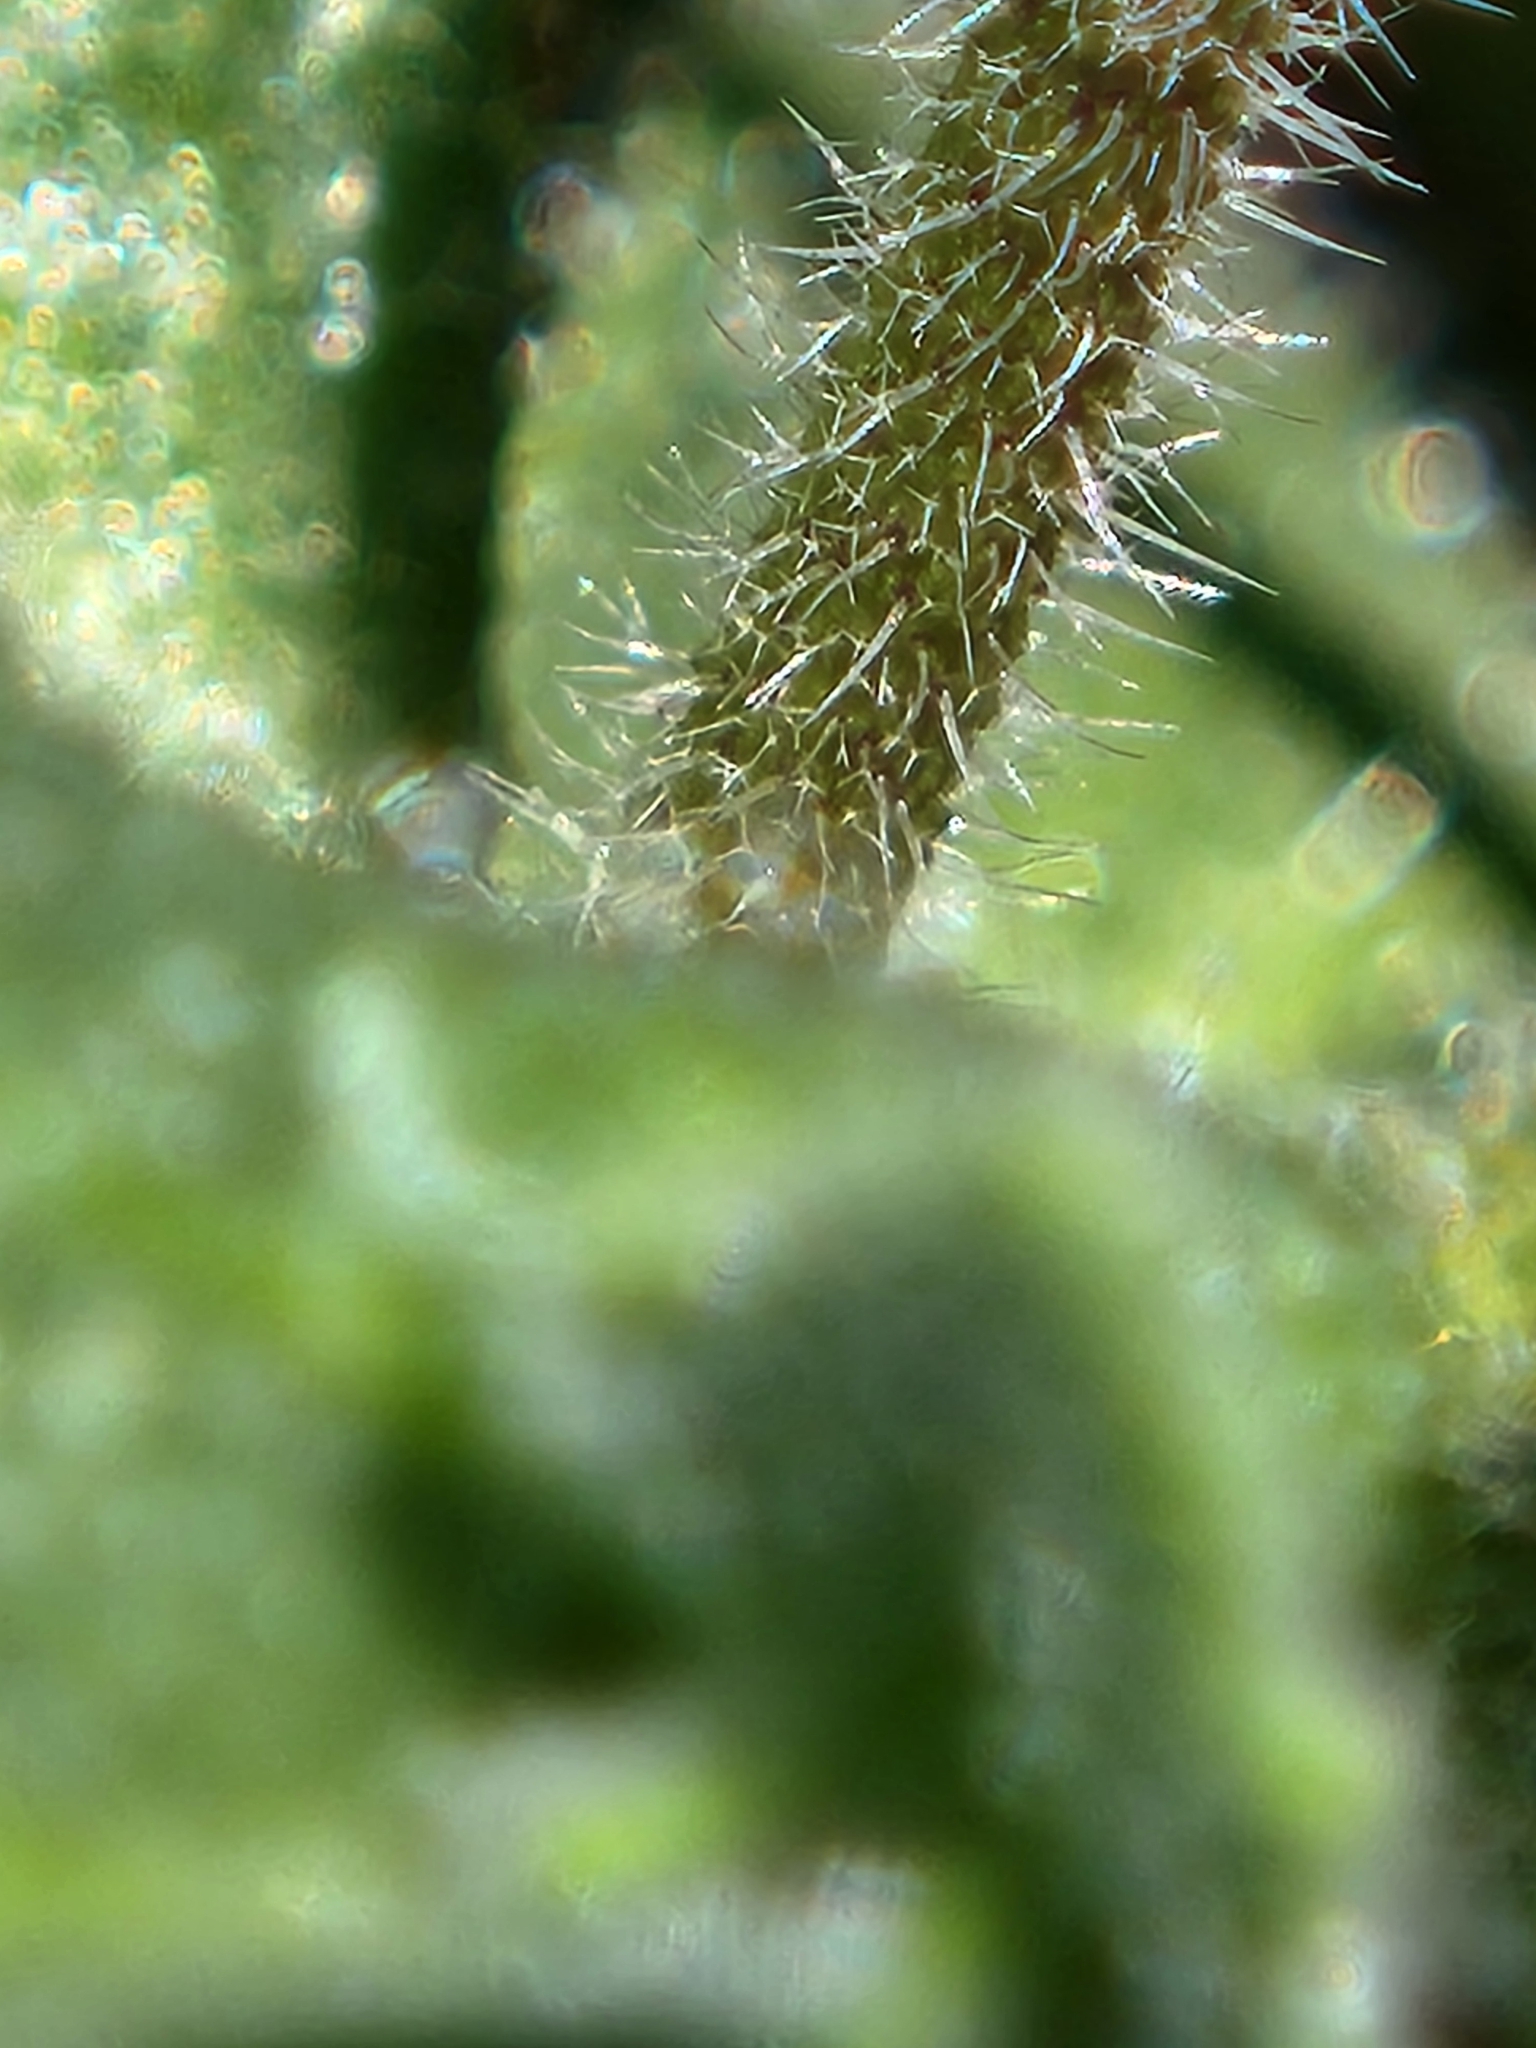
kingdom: Plantae
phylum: Tracheophyta
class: Magnoliopsida
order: Brassicales
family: Brassicaceae
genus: Tomostima
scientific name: Tomostima cuneifolia
